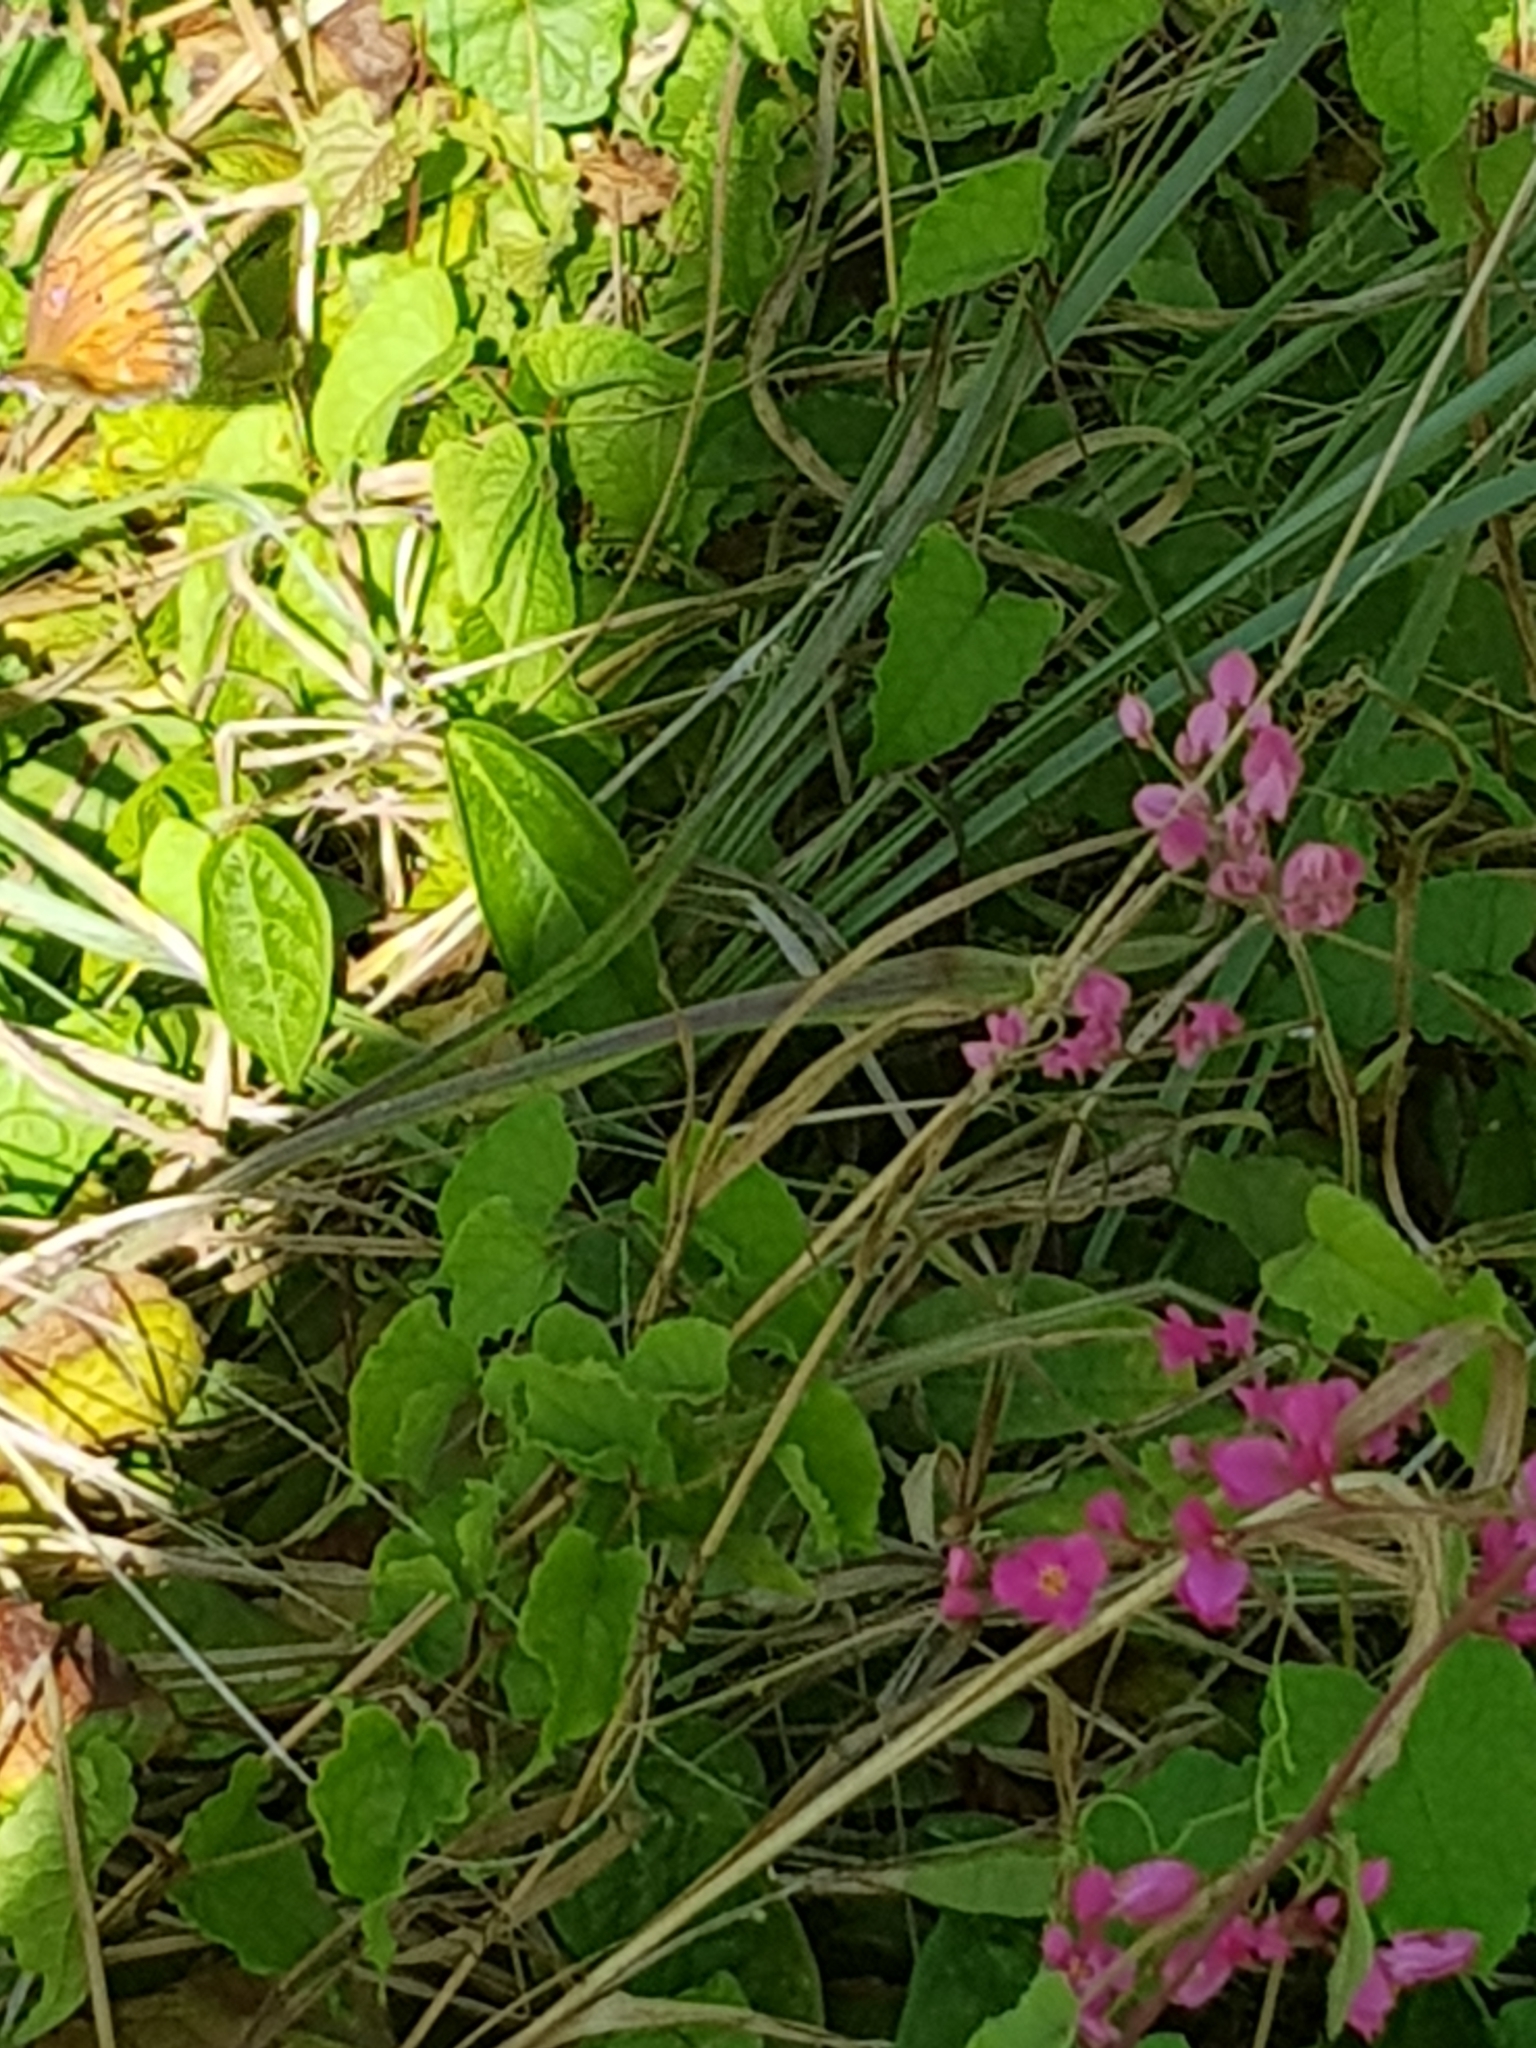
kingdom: Animalia
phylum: Arthropoda
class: Insecta
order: Lepidoptera
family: Nymphalidae
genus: Dione
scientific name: Dione vanillae
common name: Gulf fritillary
